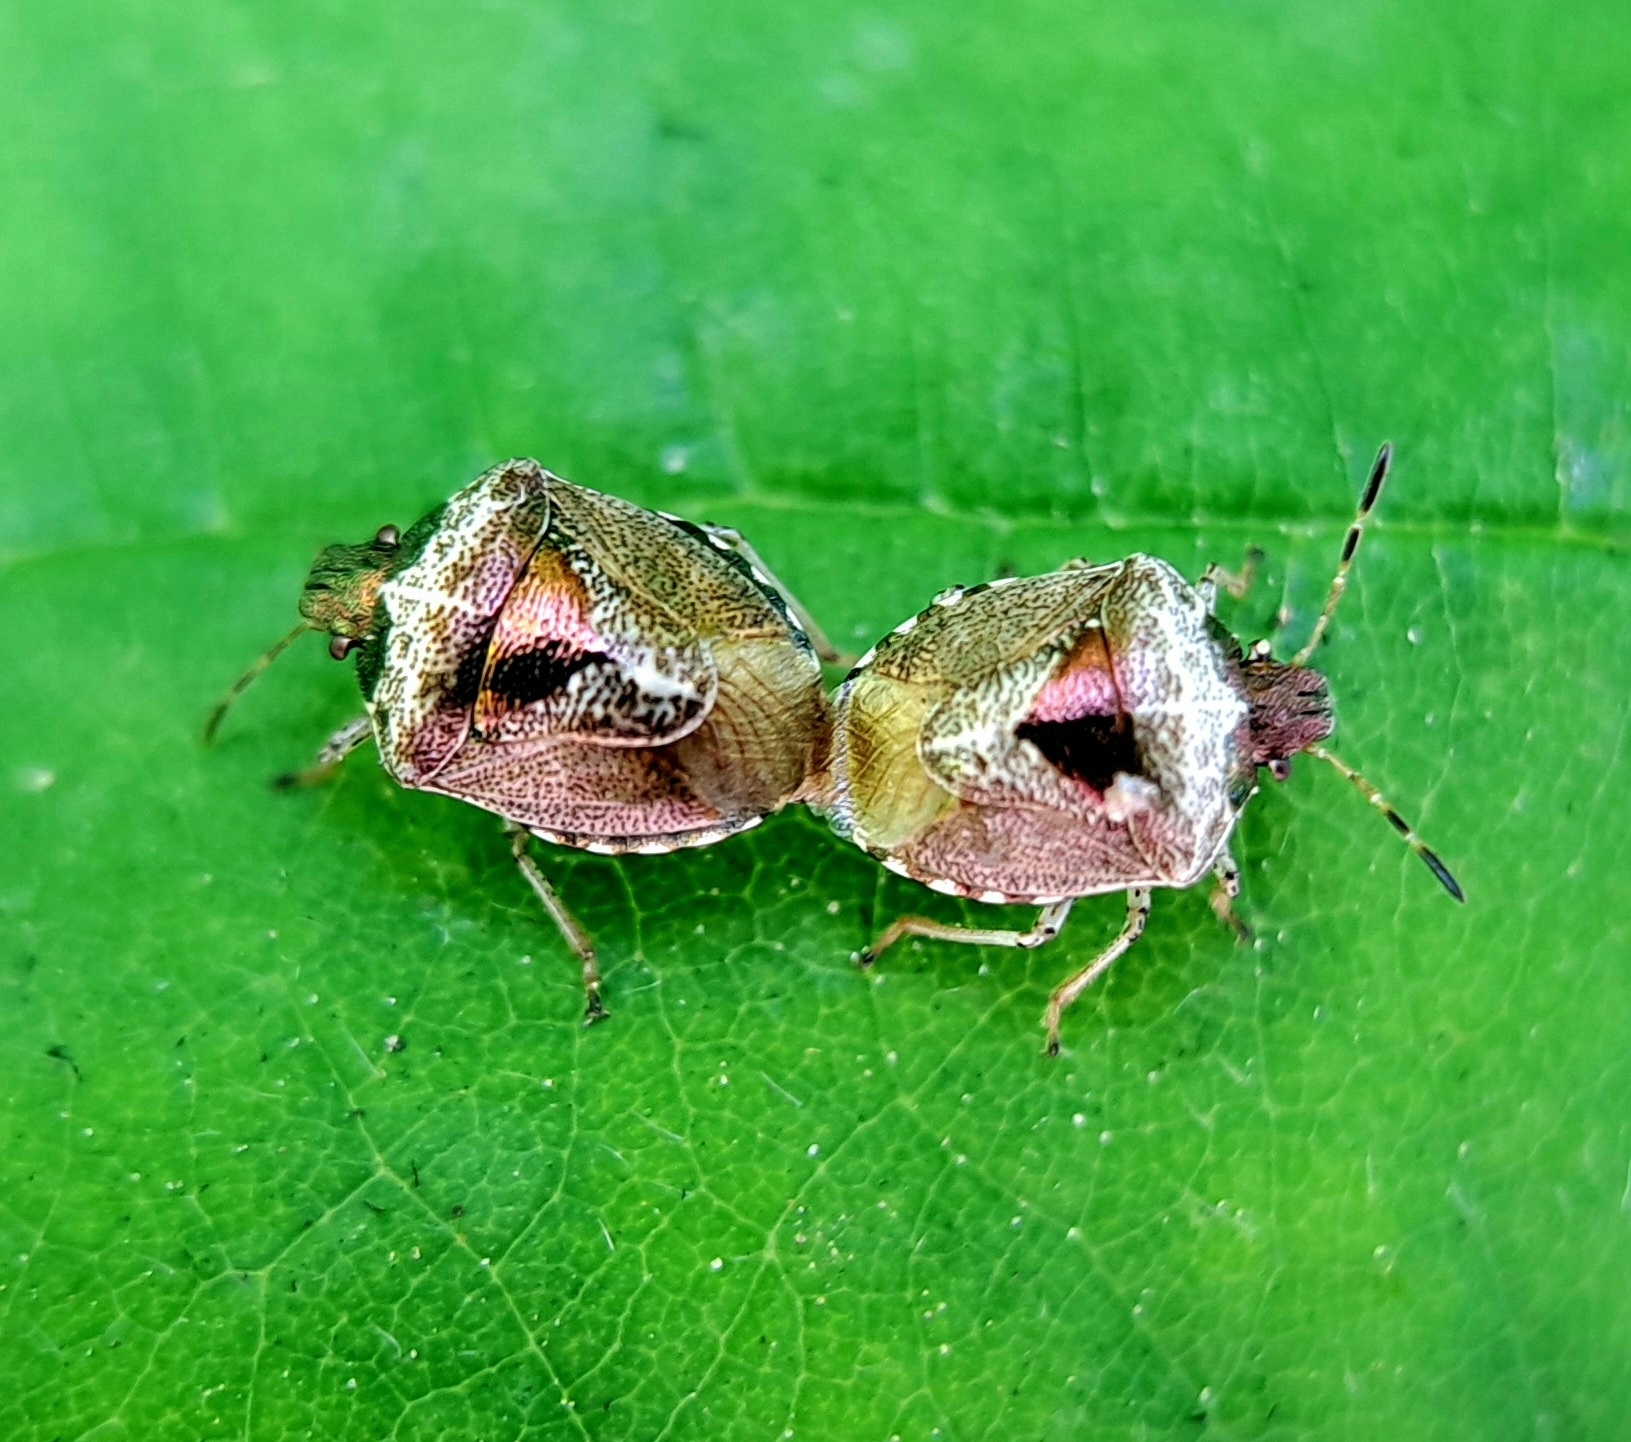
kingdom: Animalia
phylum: Arthropoda
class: Insecta
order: Hemiptera
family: Pentatomidae
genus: Eysarcoris
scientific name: Eysarcoris venustissimus
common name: Woundwort shieldbug
